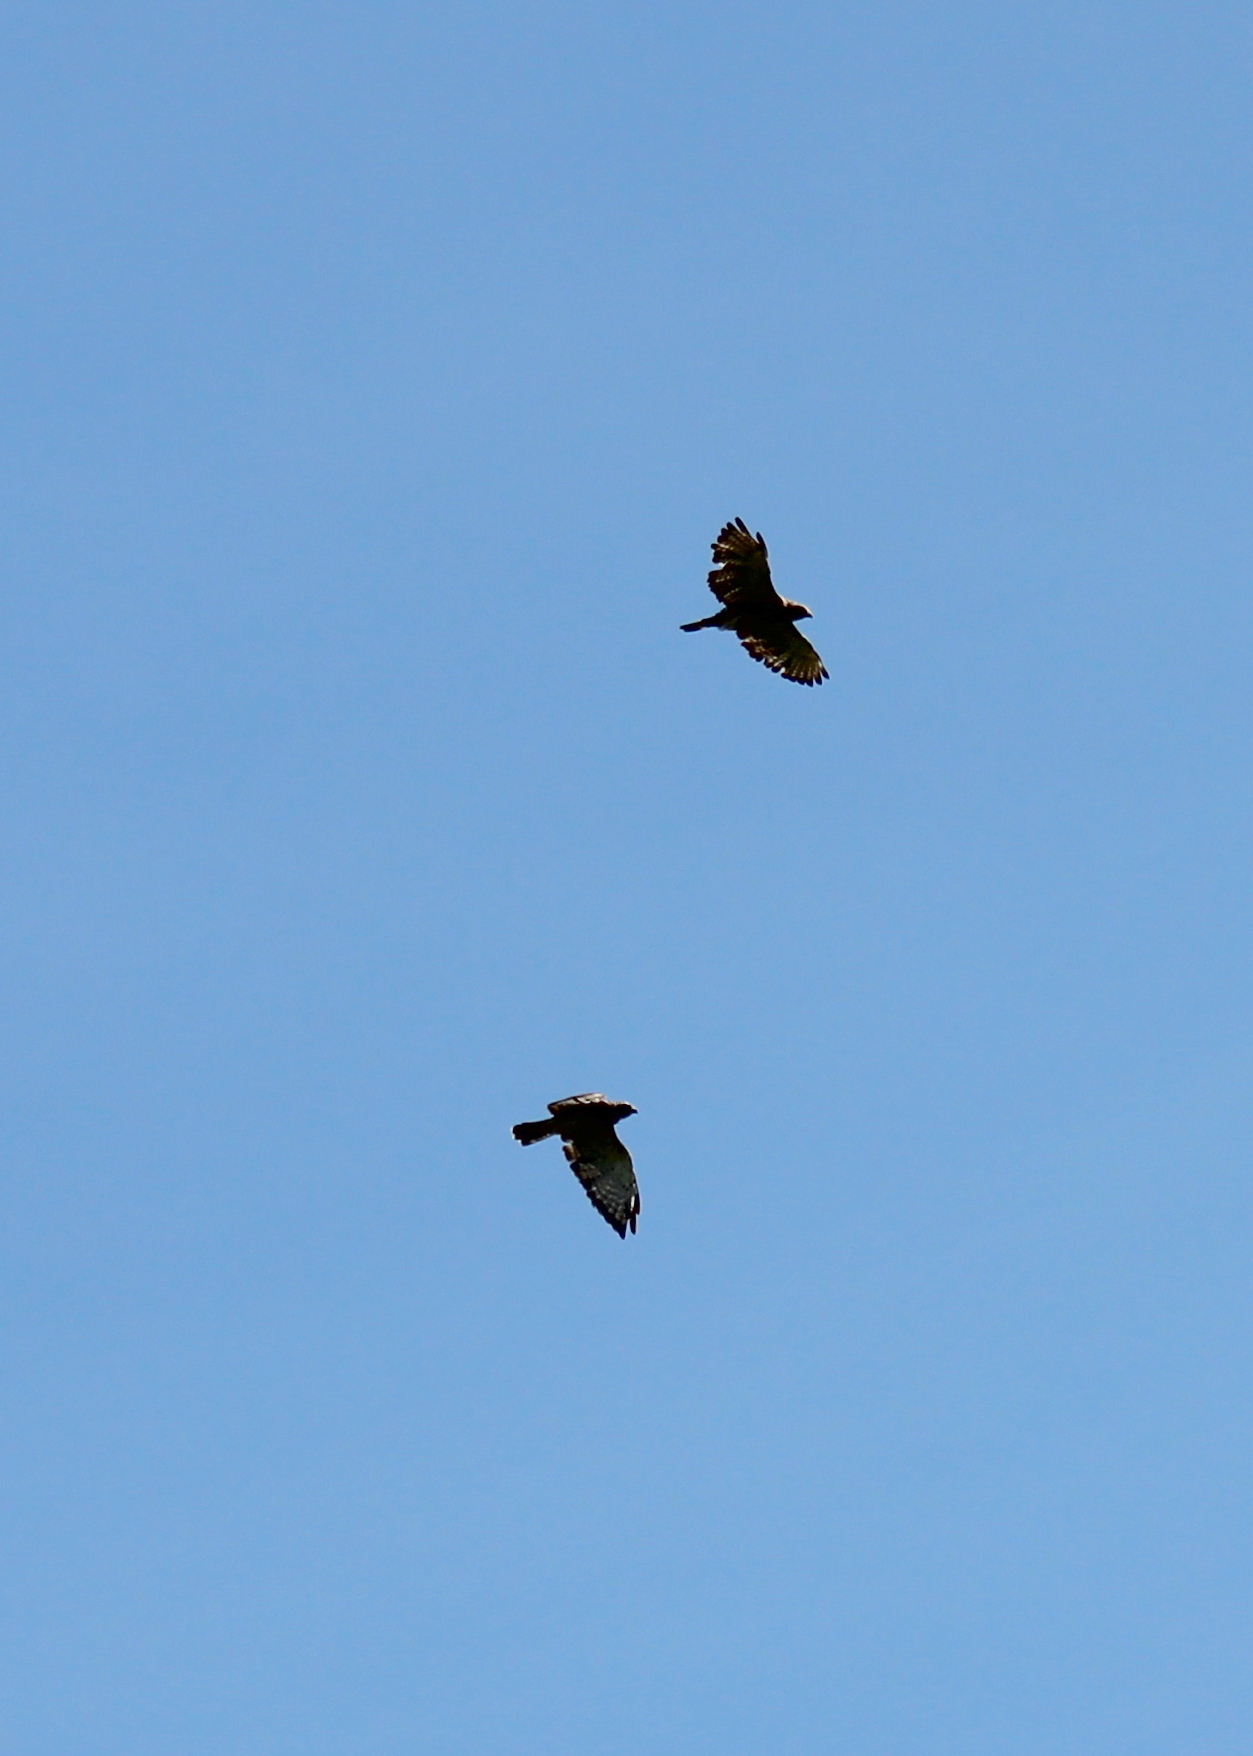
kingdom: Animalia
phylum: Chordata
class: Aves
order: Accipitriformes
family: Accipitridae
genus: Buteo
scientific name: Buteo platypterus
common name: Broad-winged hawk
